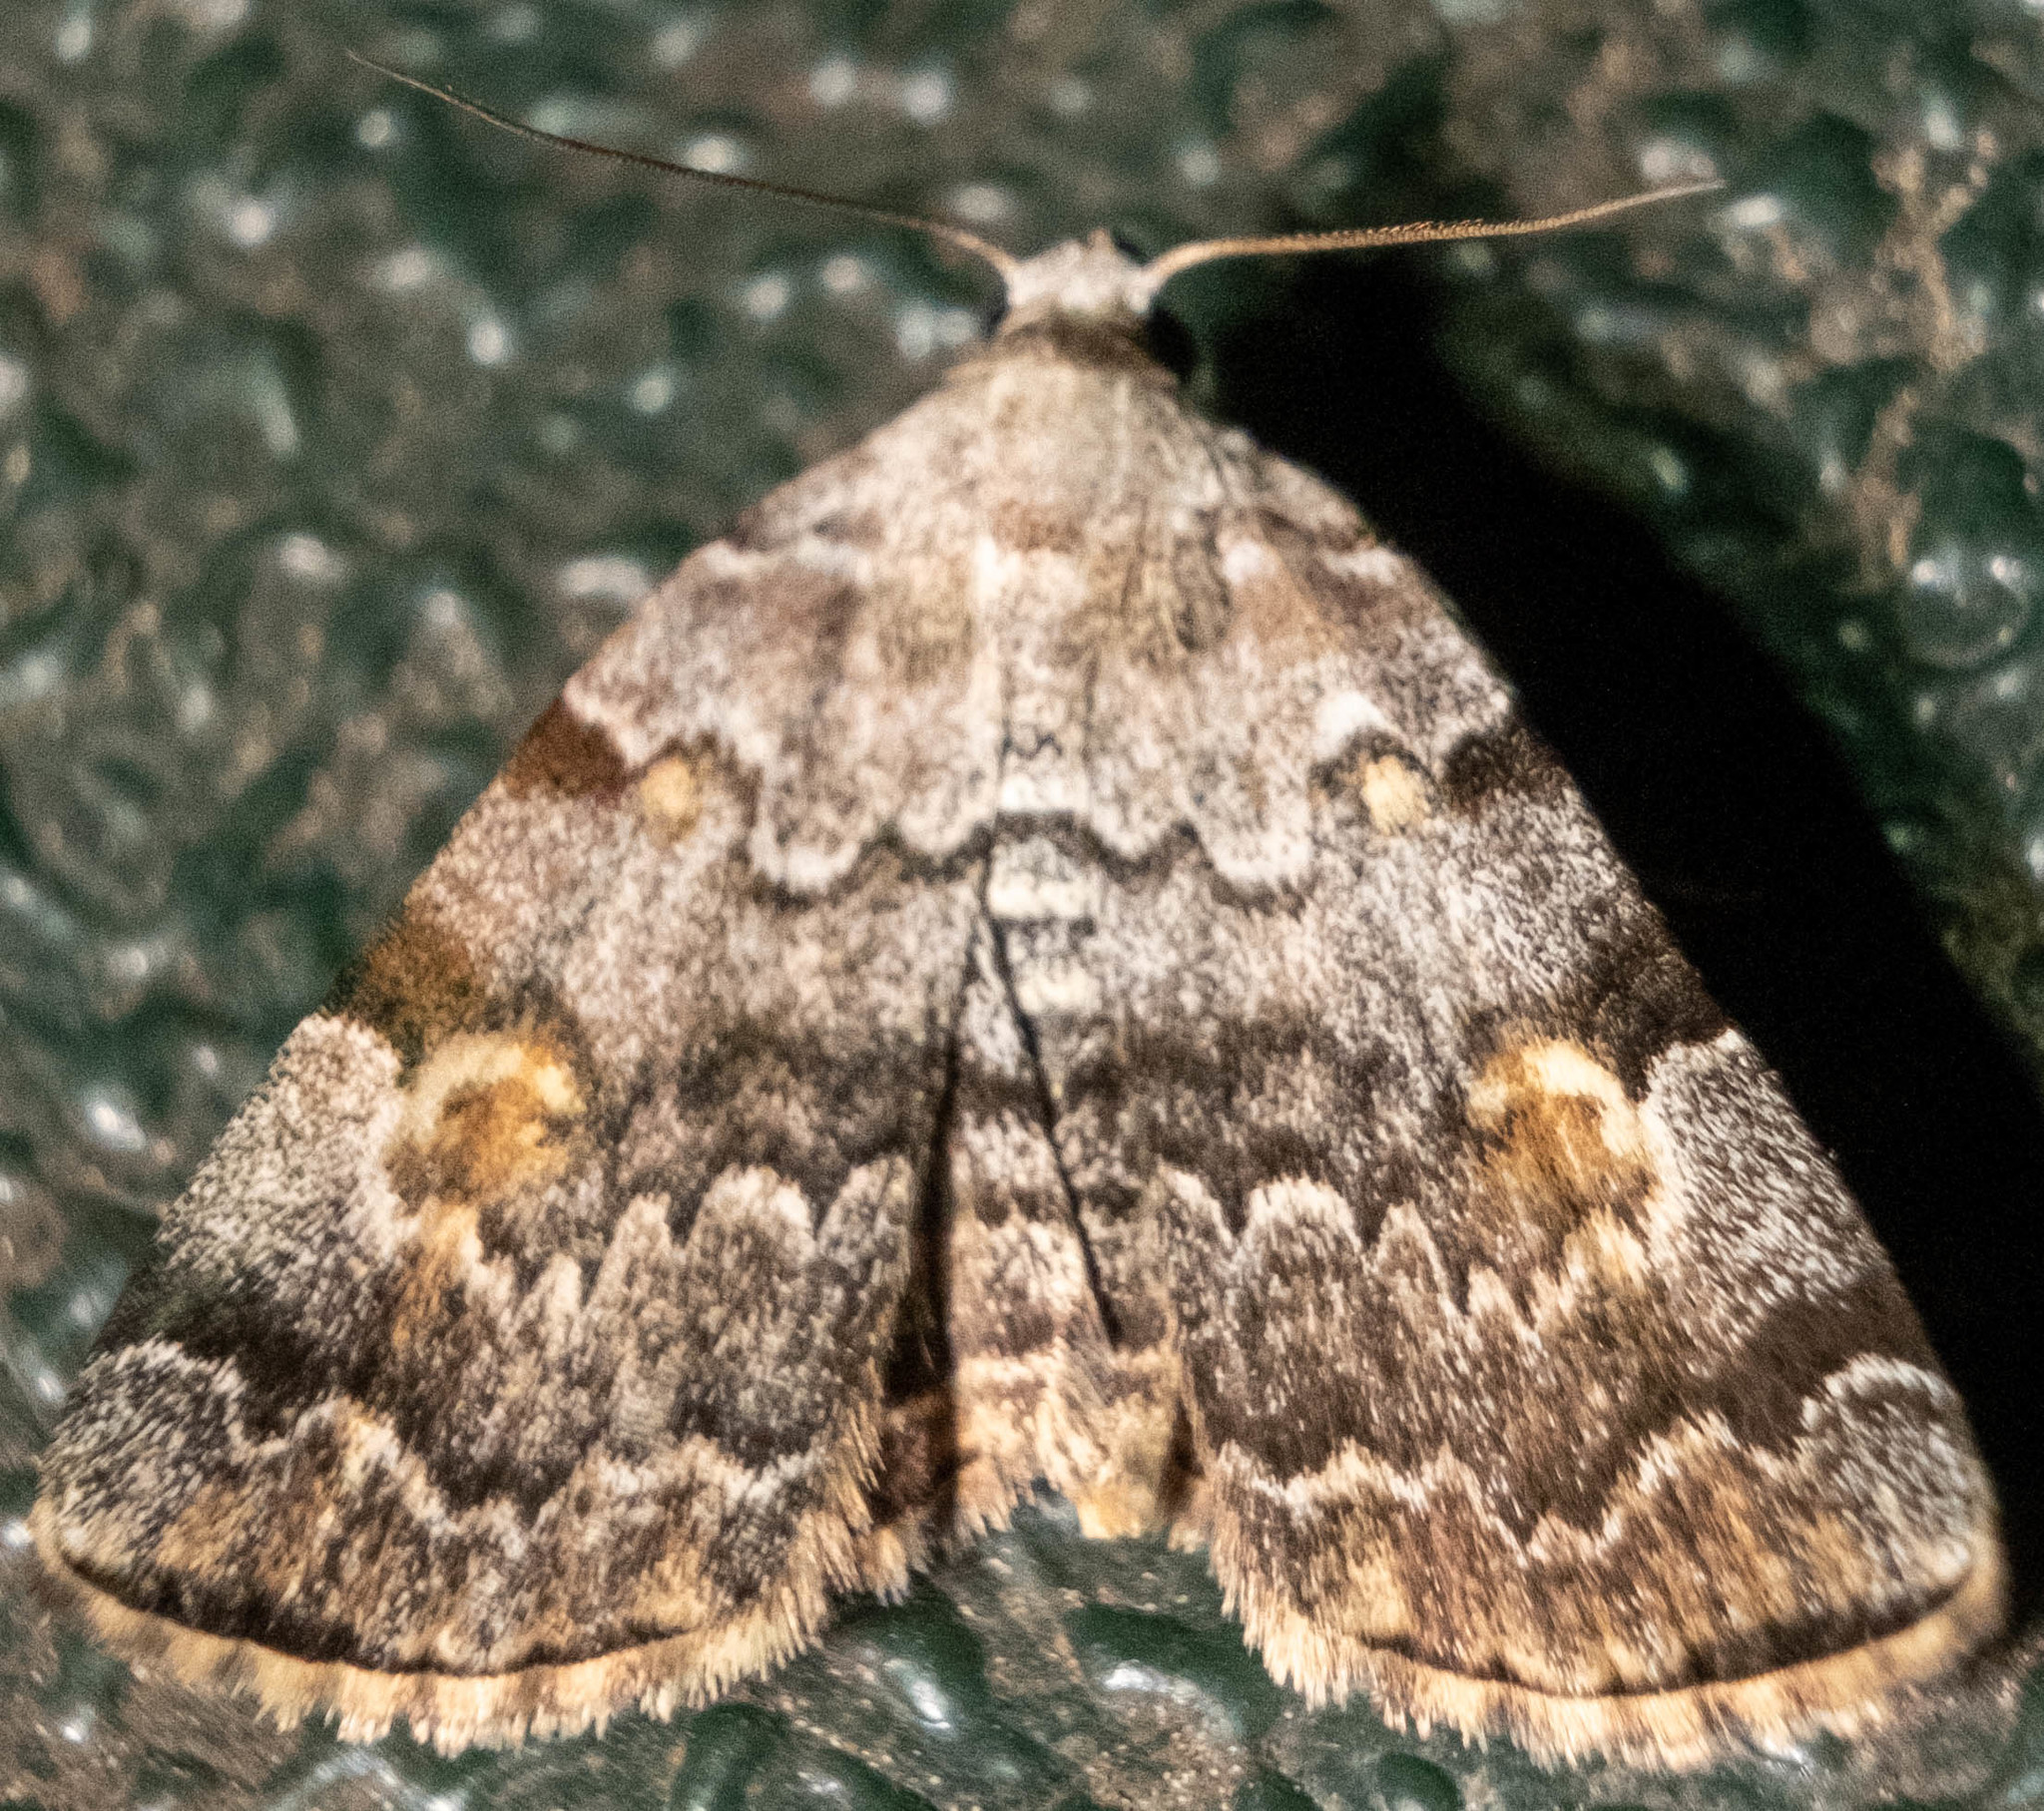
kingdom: Animalia
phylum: Arthropoda
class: Insecta
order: Lepidoptera
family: Erebidae
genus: Idia
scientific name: Idia americalis
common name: American idia moth
